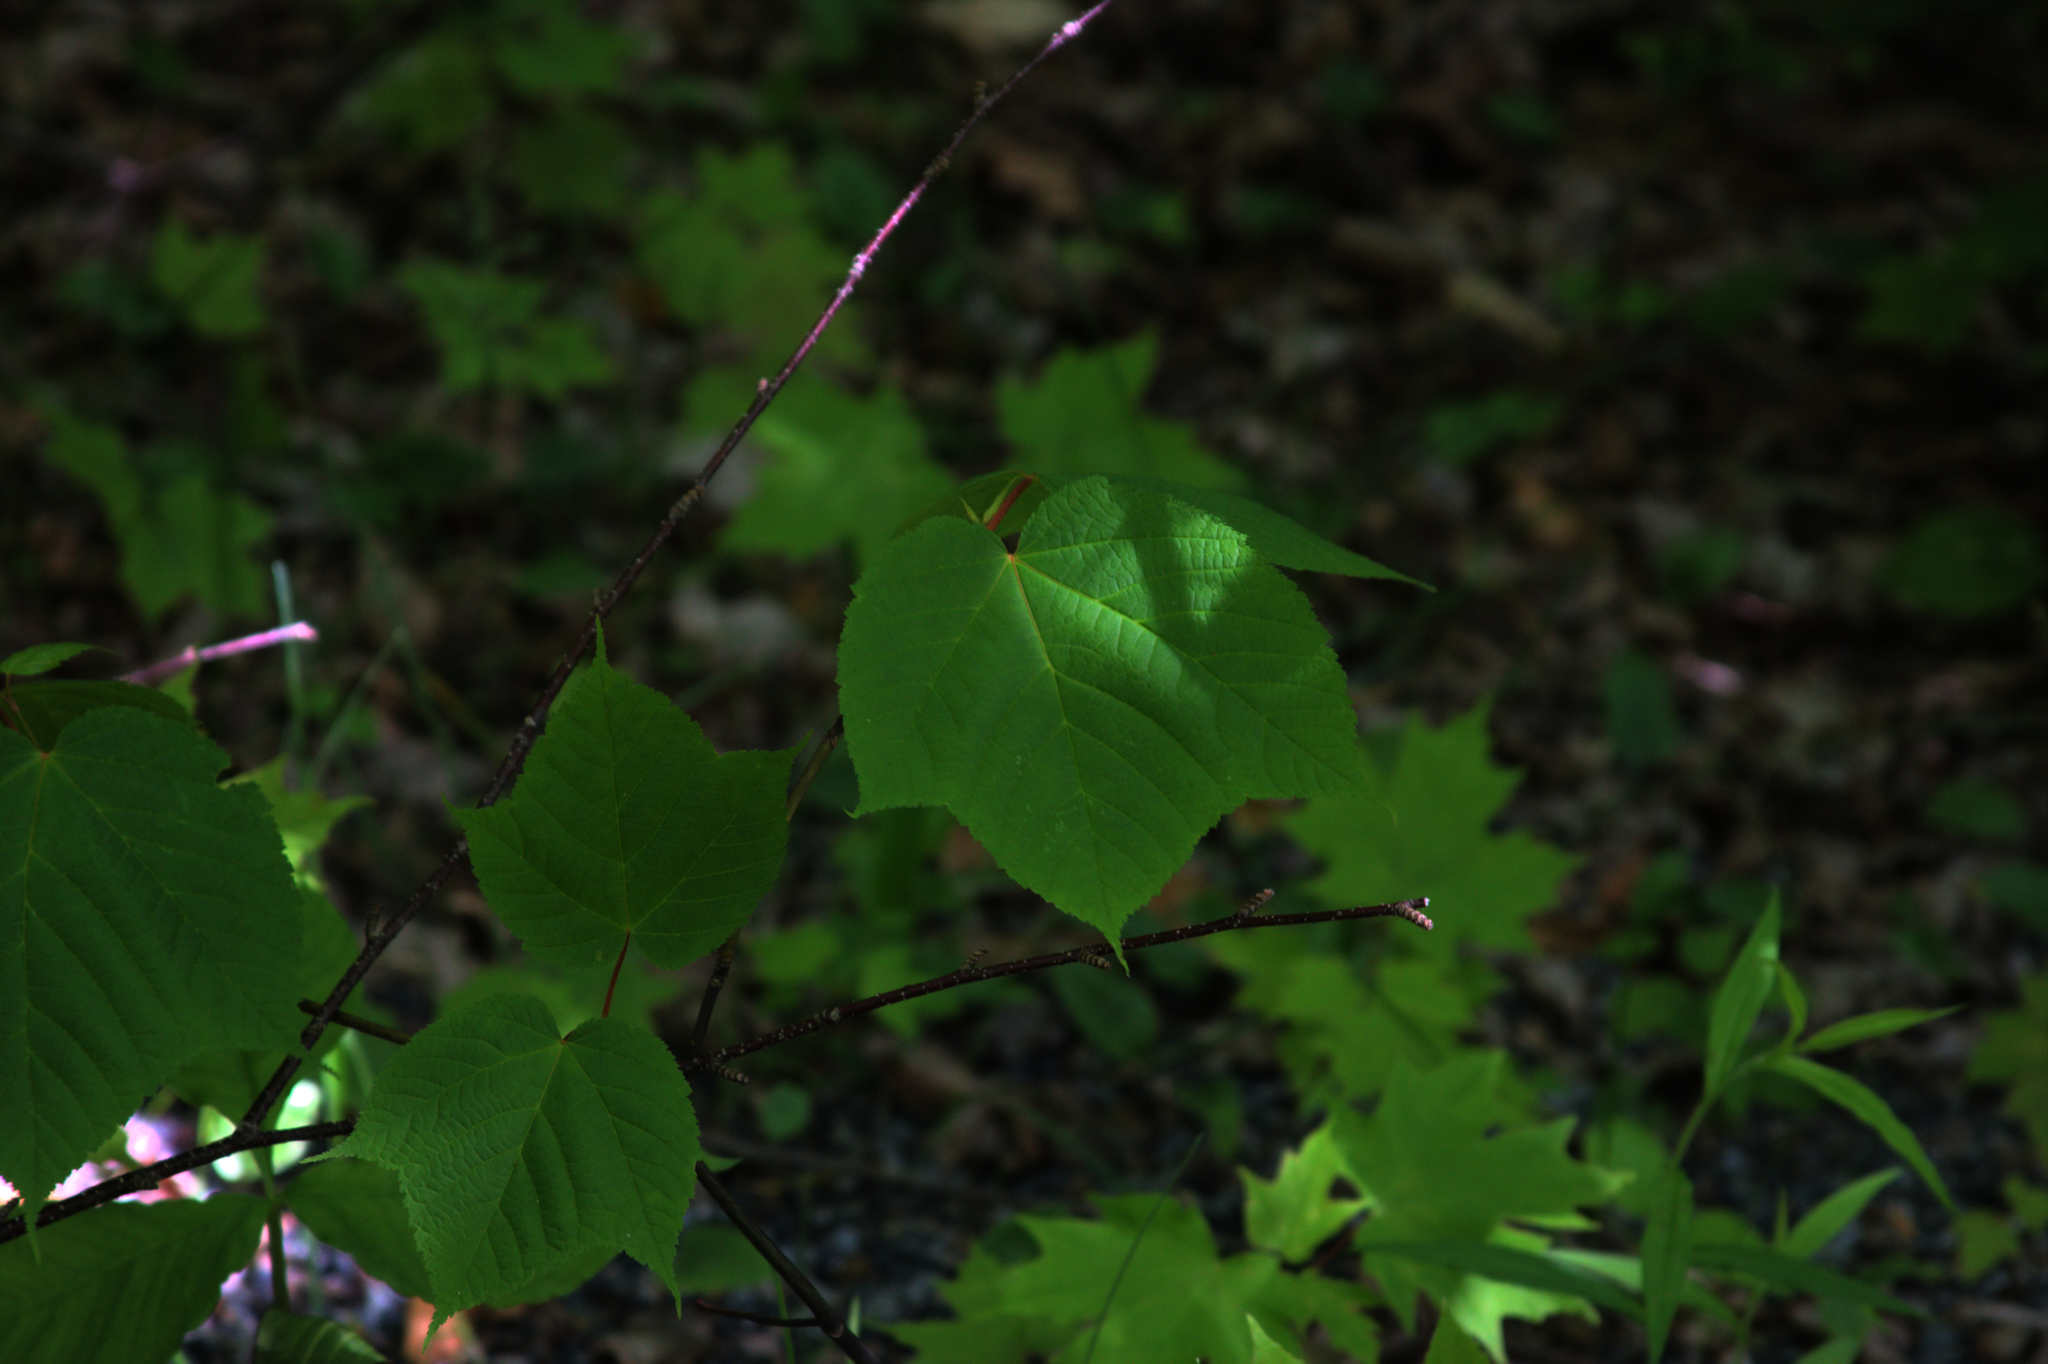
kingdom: Plantae
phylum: Tracheophyta
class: Magnoliopsida
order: Sapindales
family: Sapindaceae
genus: Acer
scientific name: Acer pensylvanicum
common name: Moosewood
